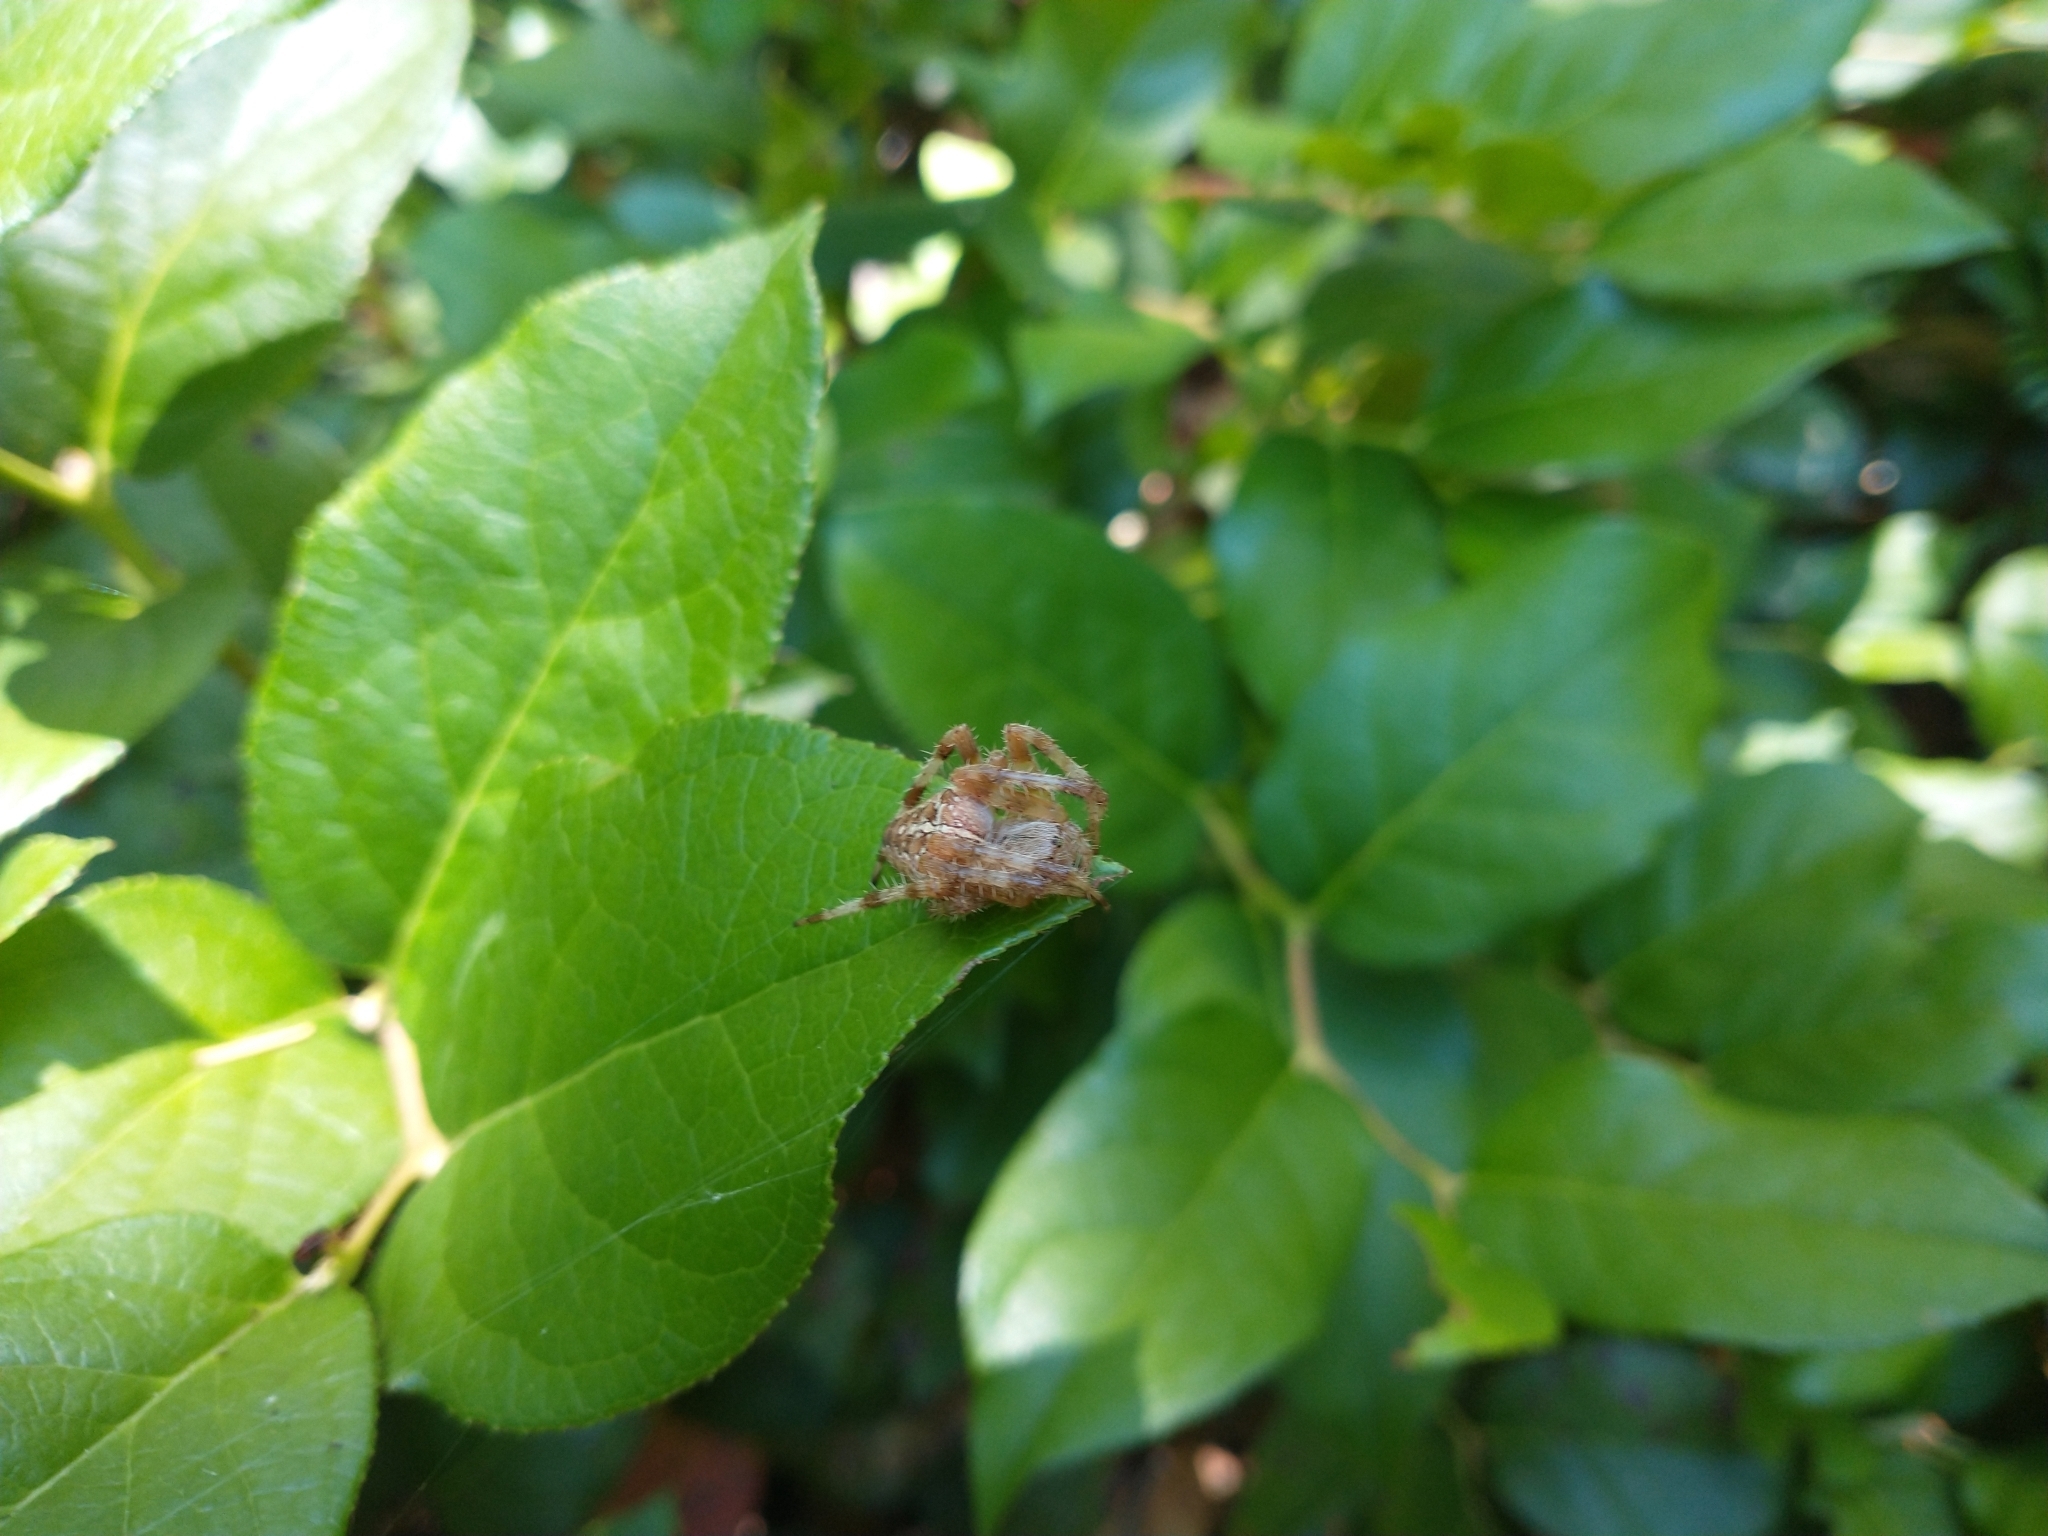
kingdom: Plantae
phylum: Tracheophyta
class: Magnoliopsida
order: Ericales
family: Ericaceae
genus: Gaultheria
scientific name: Gaultheria shallon
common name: Shallon
